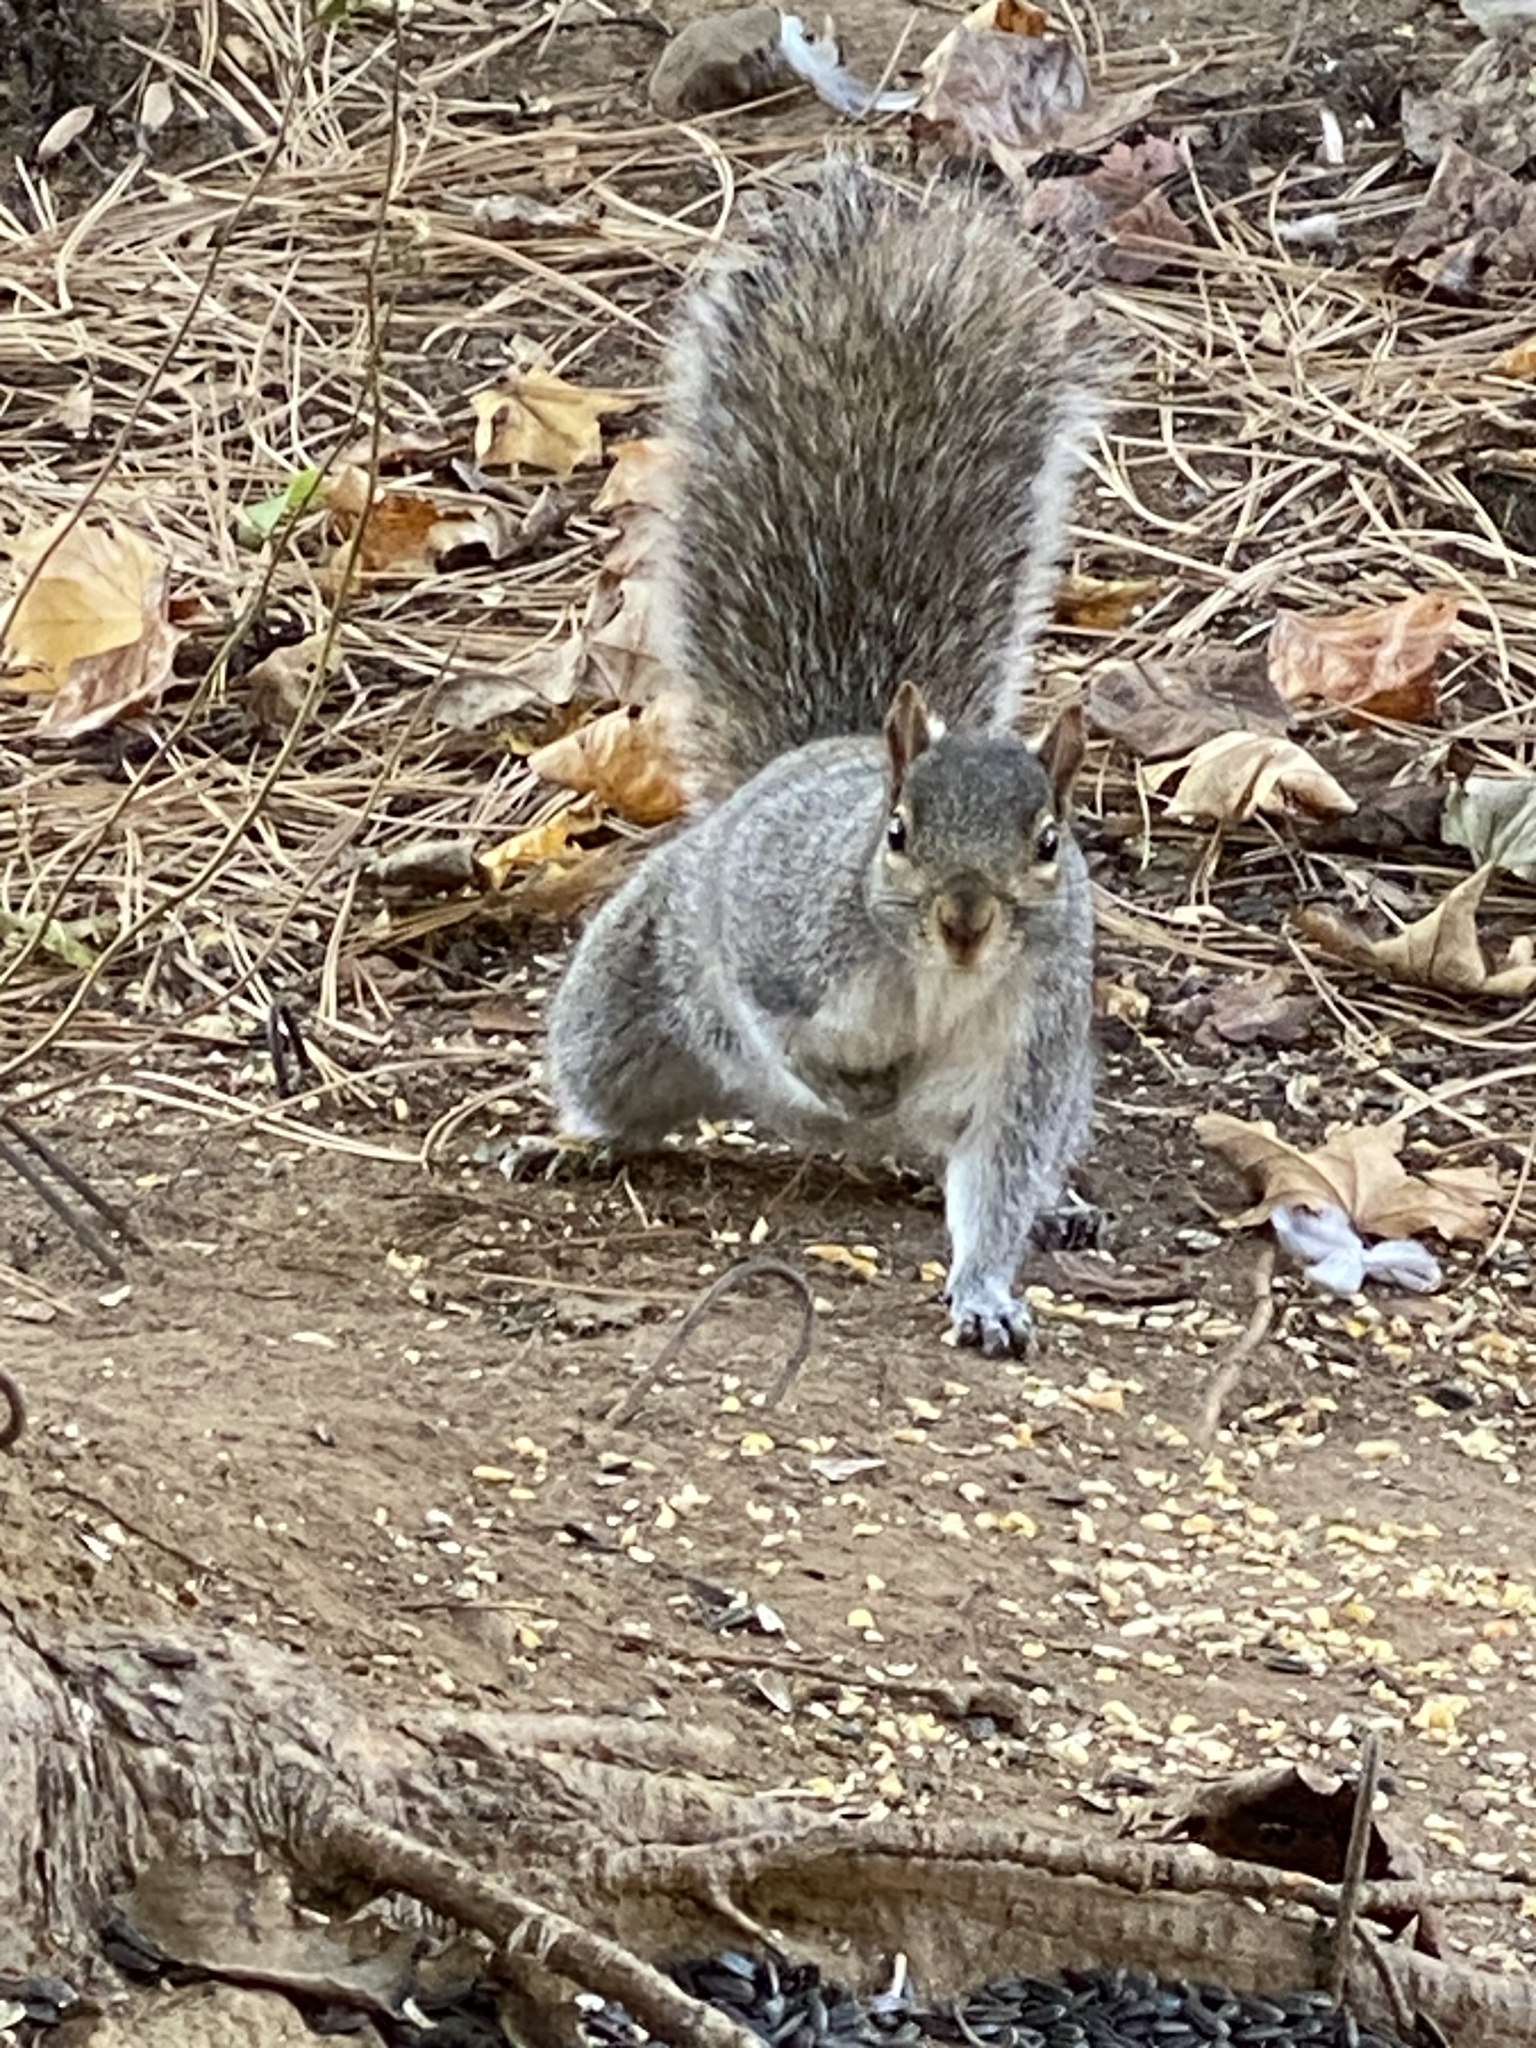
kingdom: Animalia
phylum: Chordata
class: Mammalia
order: Rodentia
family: Sciuridae
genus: Sciurus
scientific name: Sciurus carolinensis
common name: Eastern gray squirrel
